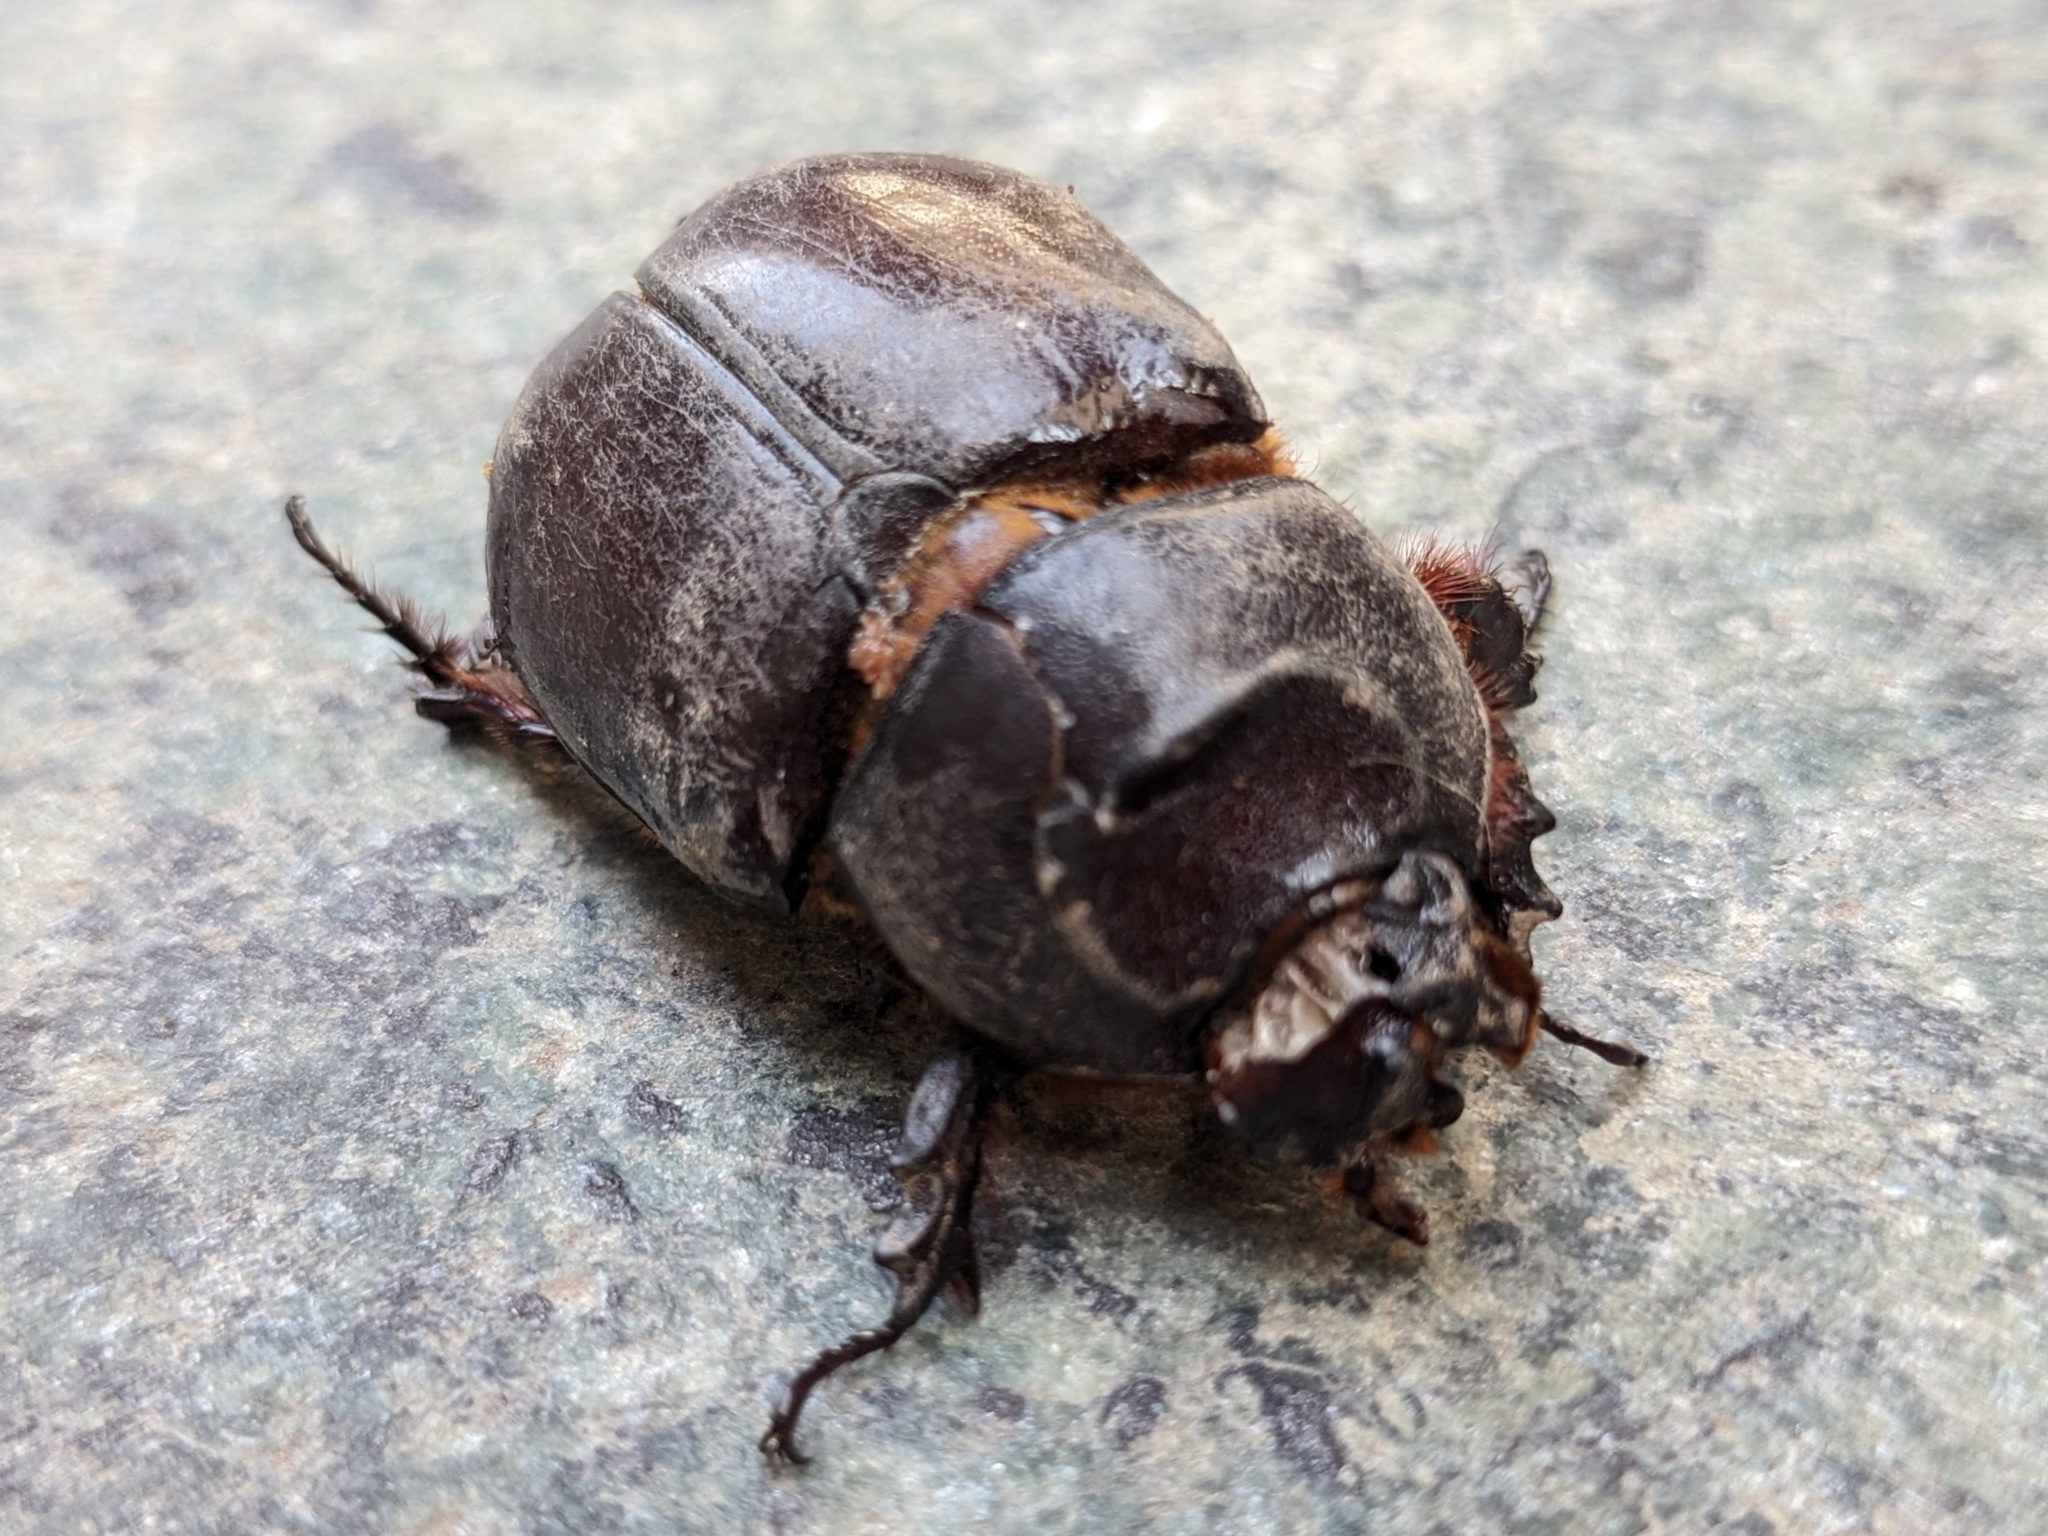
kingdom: Animalia
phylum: Arthropoda
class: Insecta
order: Coleoptera
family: Scarabaeidae
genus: Oryctes
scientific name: Oryctes nasicornis
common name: European rhinoceros beetle
